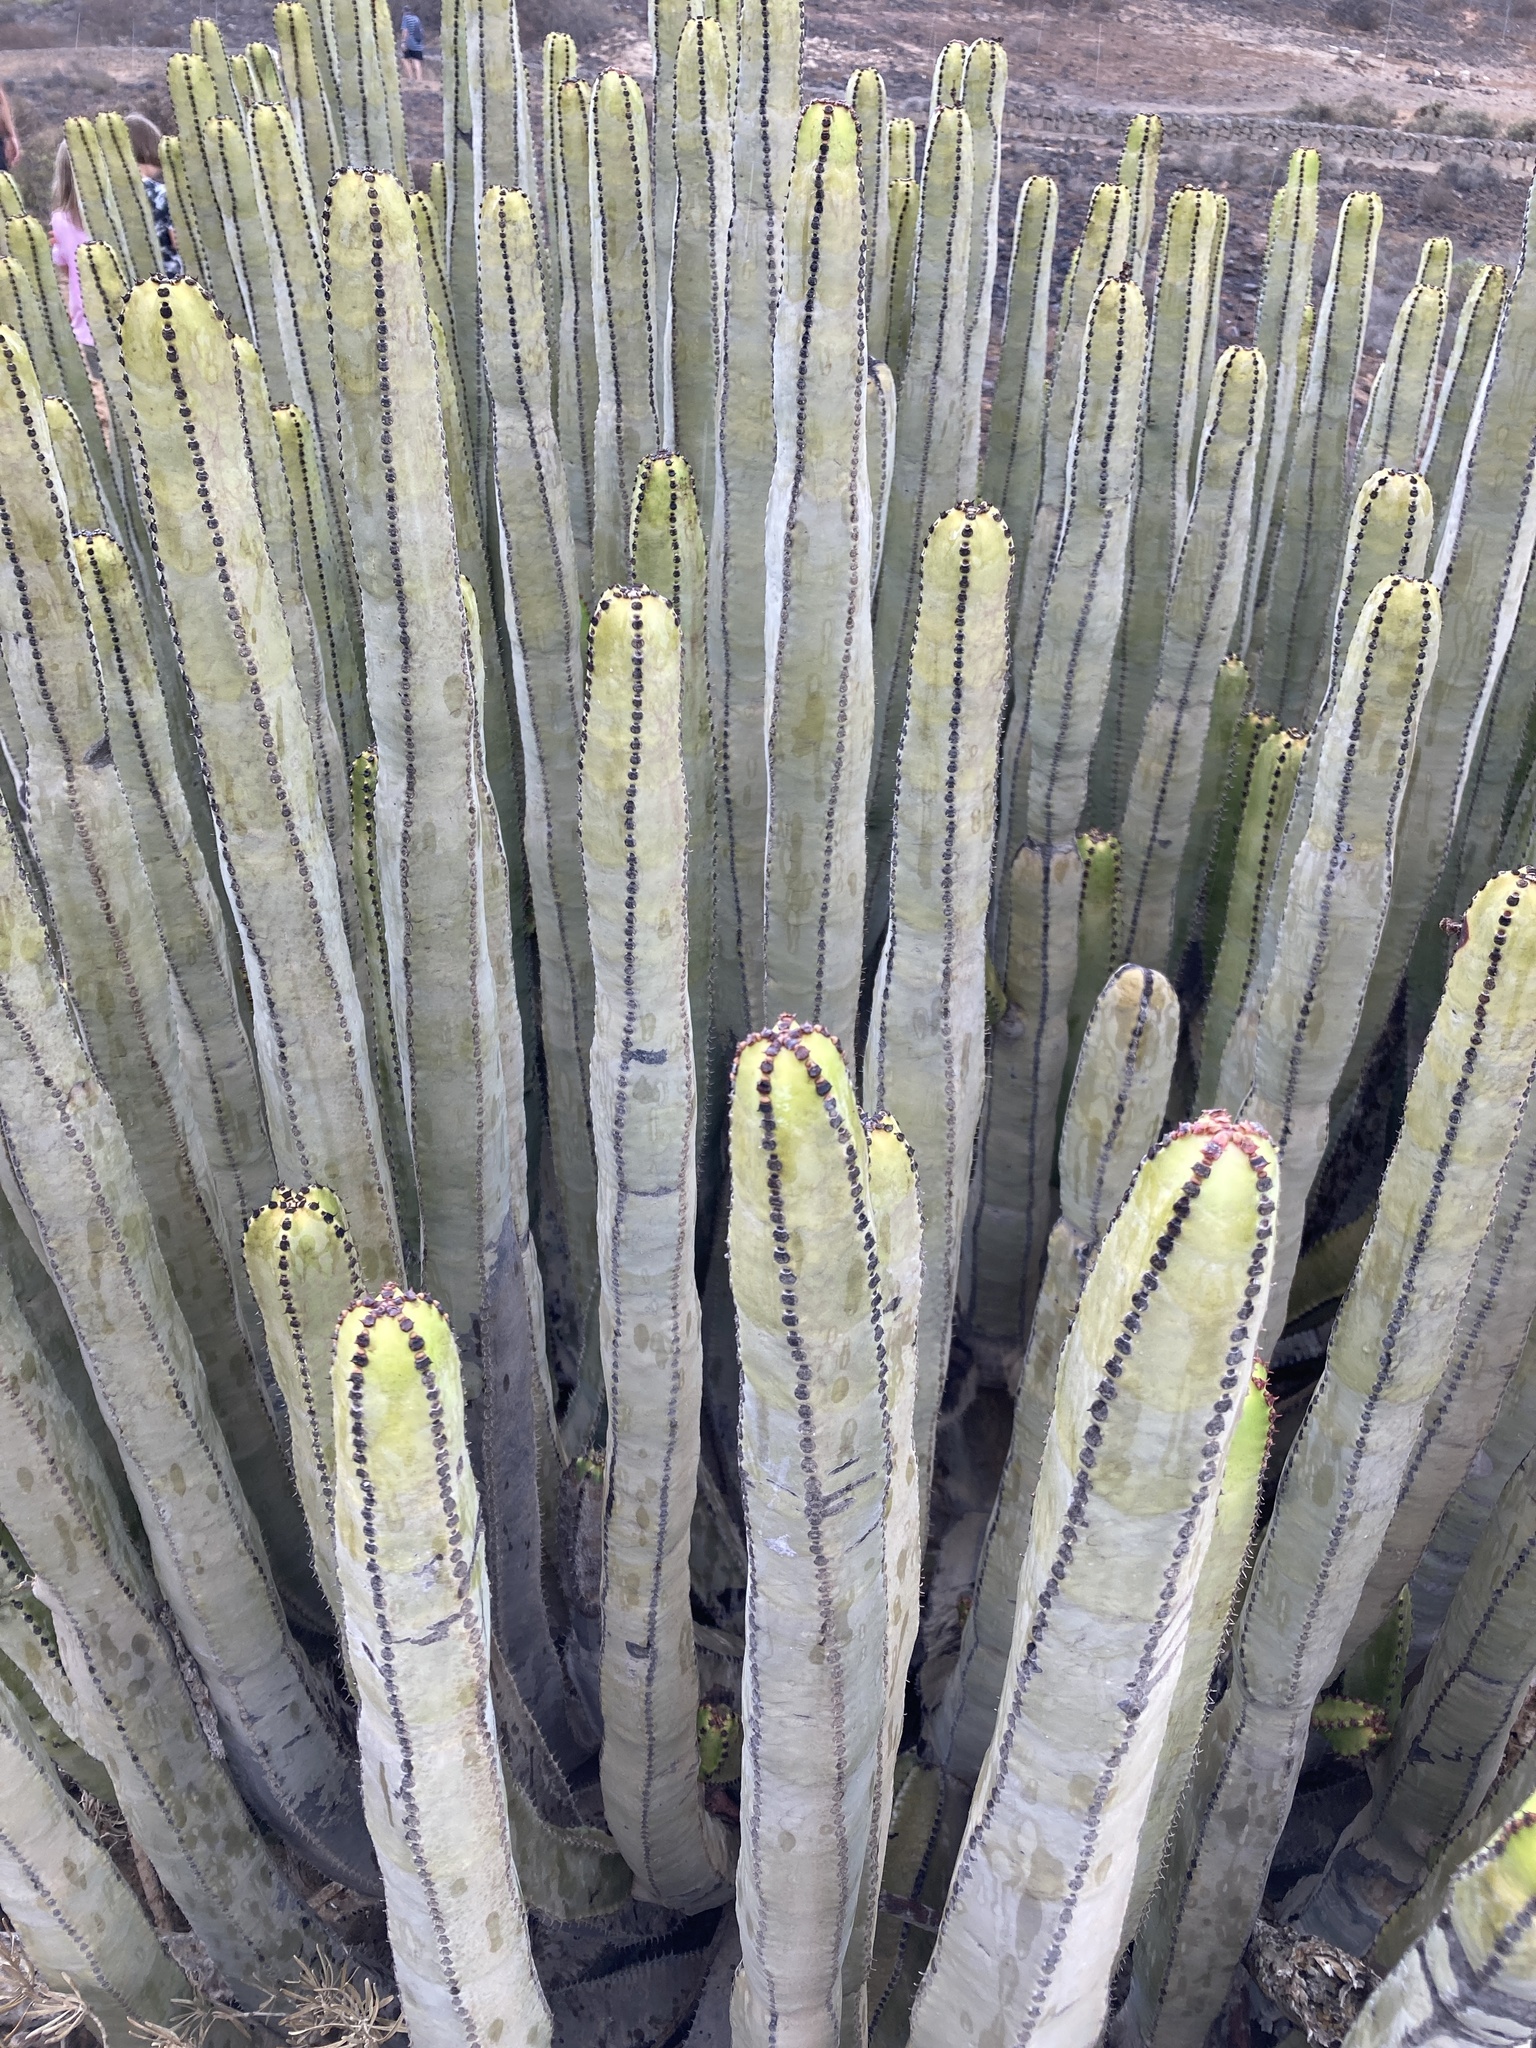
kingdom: Plantae
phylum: Tracheophyta
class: Magnoliopsida
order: Malpighiales
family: Euphorbiaceae
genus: Euphorbia
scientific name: Euphorbia canariensis
